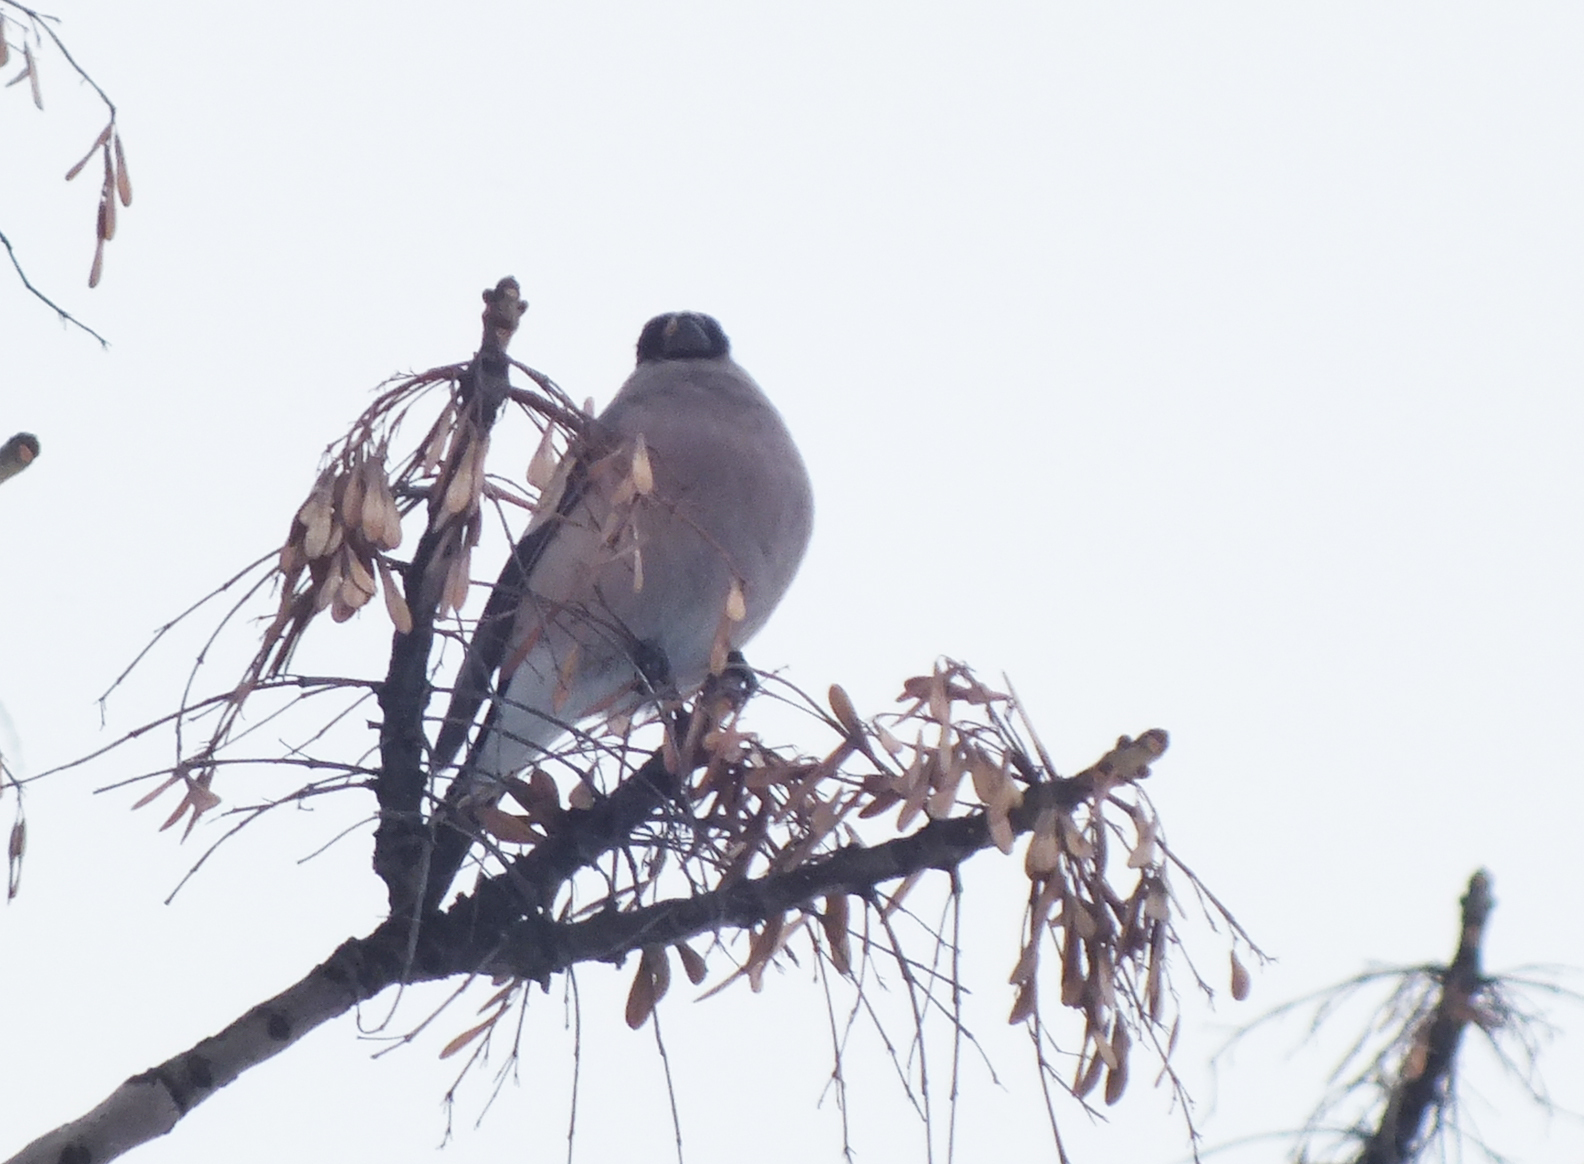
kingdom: Animalia
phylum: Chordata
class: Aves
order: Passeriformes
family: Fringillidae
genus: Pyrrhula
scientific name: Pyrrhula pyrrhula
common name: Eurasian bullfinch
